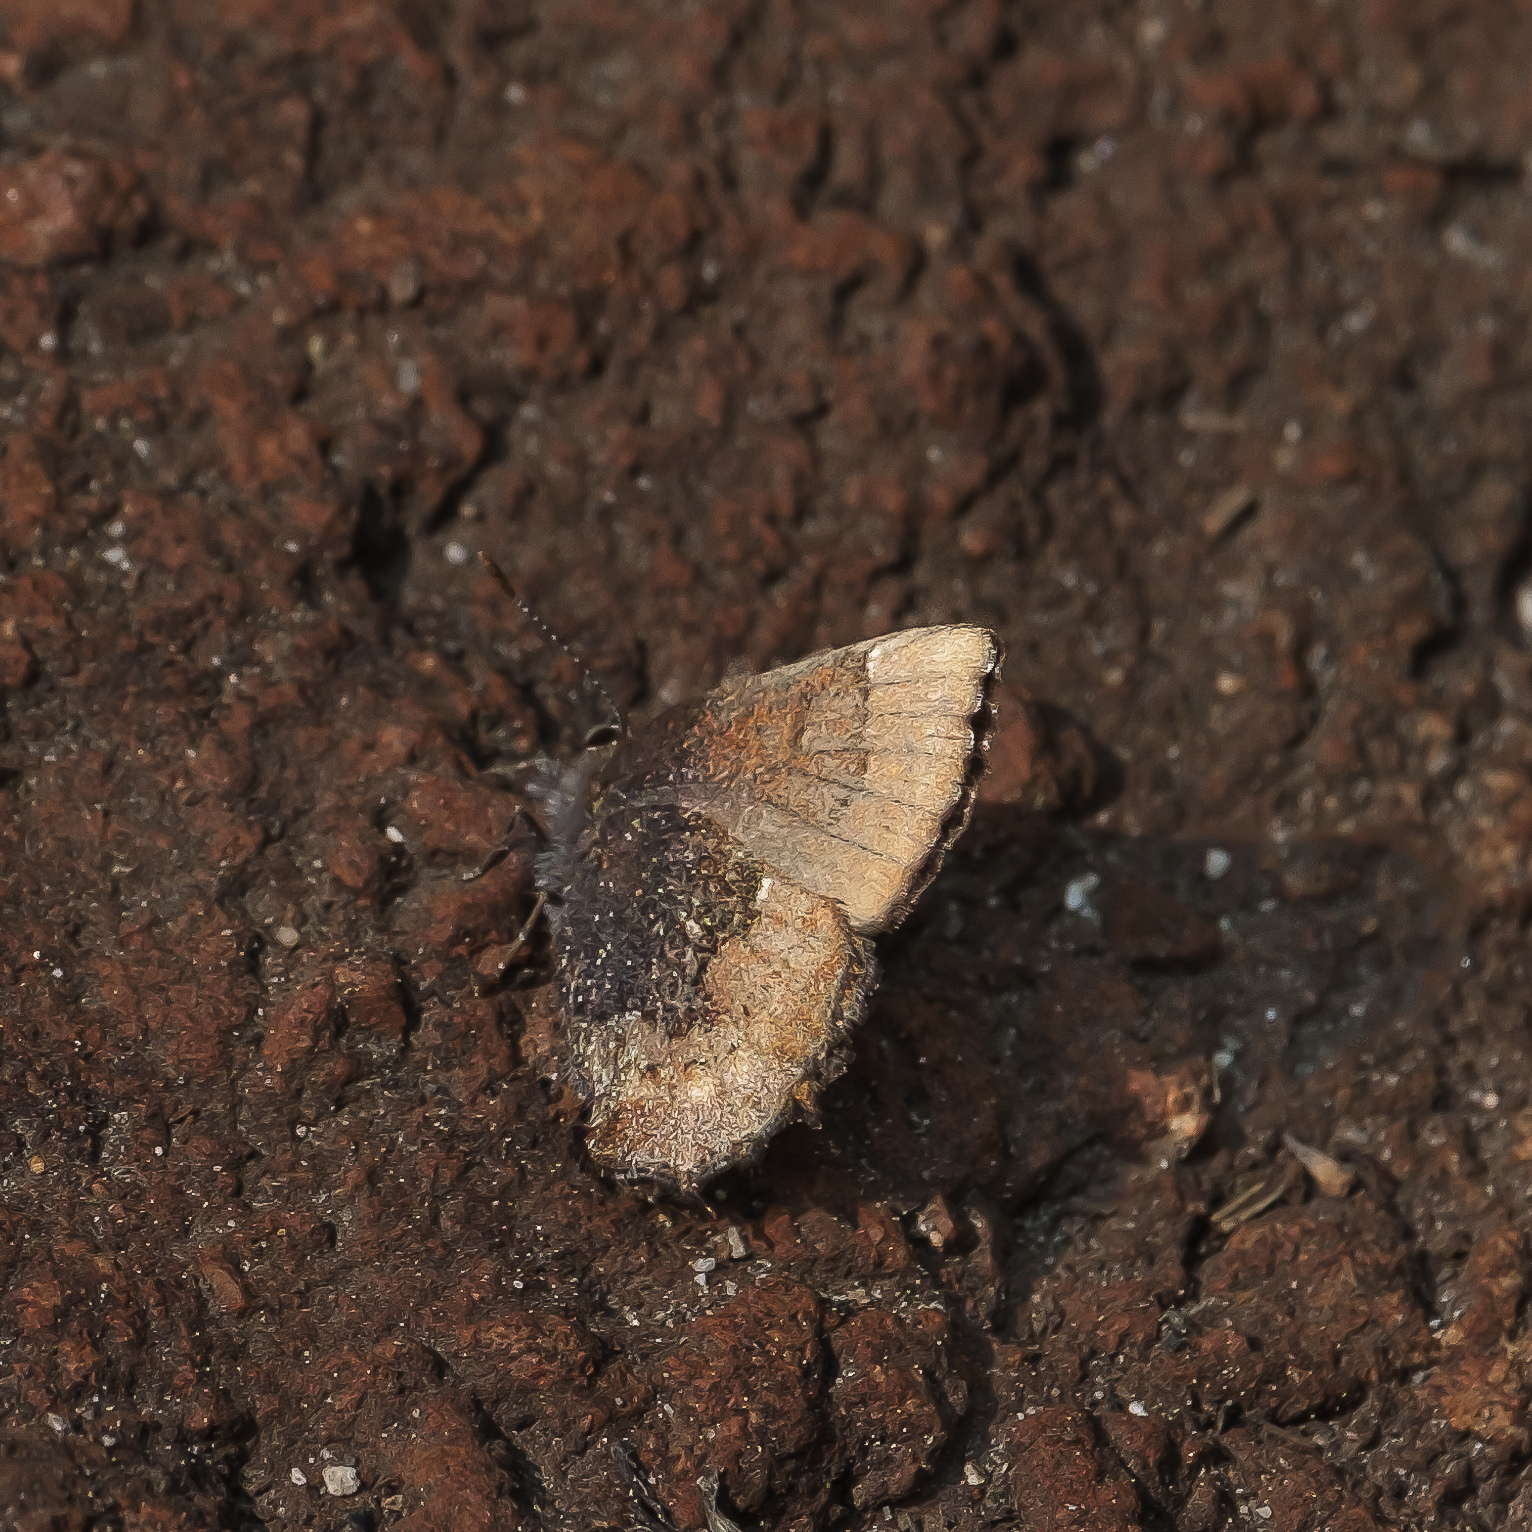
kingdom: Animalia
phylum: Arthropoda
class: Insecta
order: Lepidoptera
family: Lycaenidae
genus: Incisalia
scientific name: Incisalia henrici
